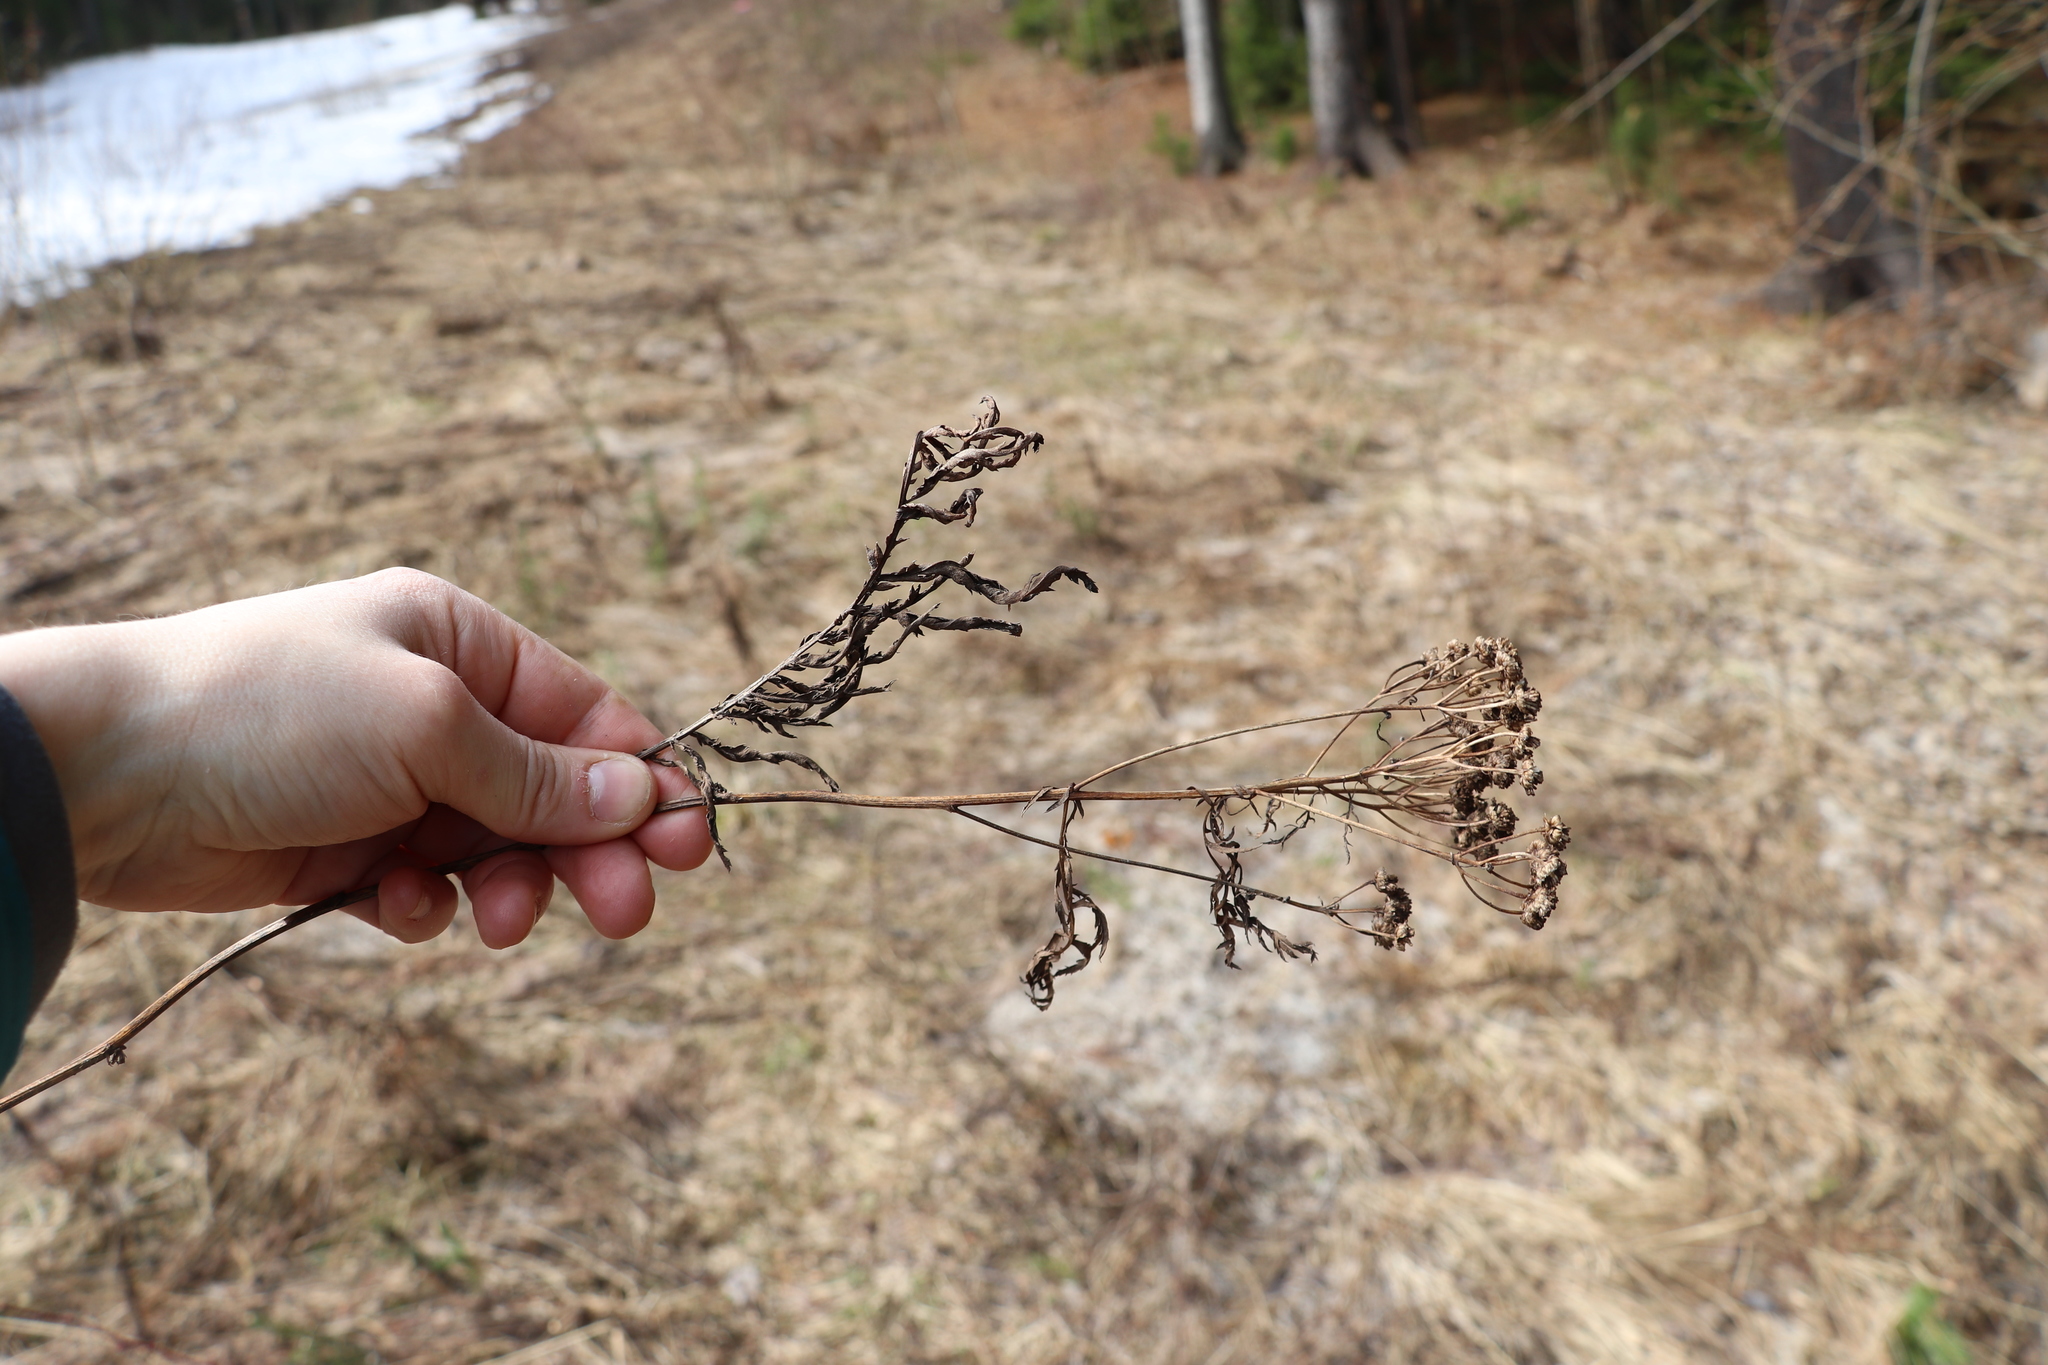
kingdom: Plantae
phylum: Tracheophyta
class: Magnoliopsida
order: Asterales
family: Asteraceae
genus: Tanacetum
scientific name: Tanacetum vulgare
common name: Common tansy
